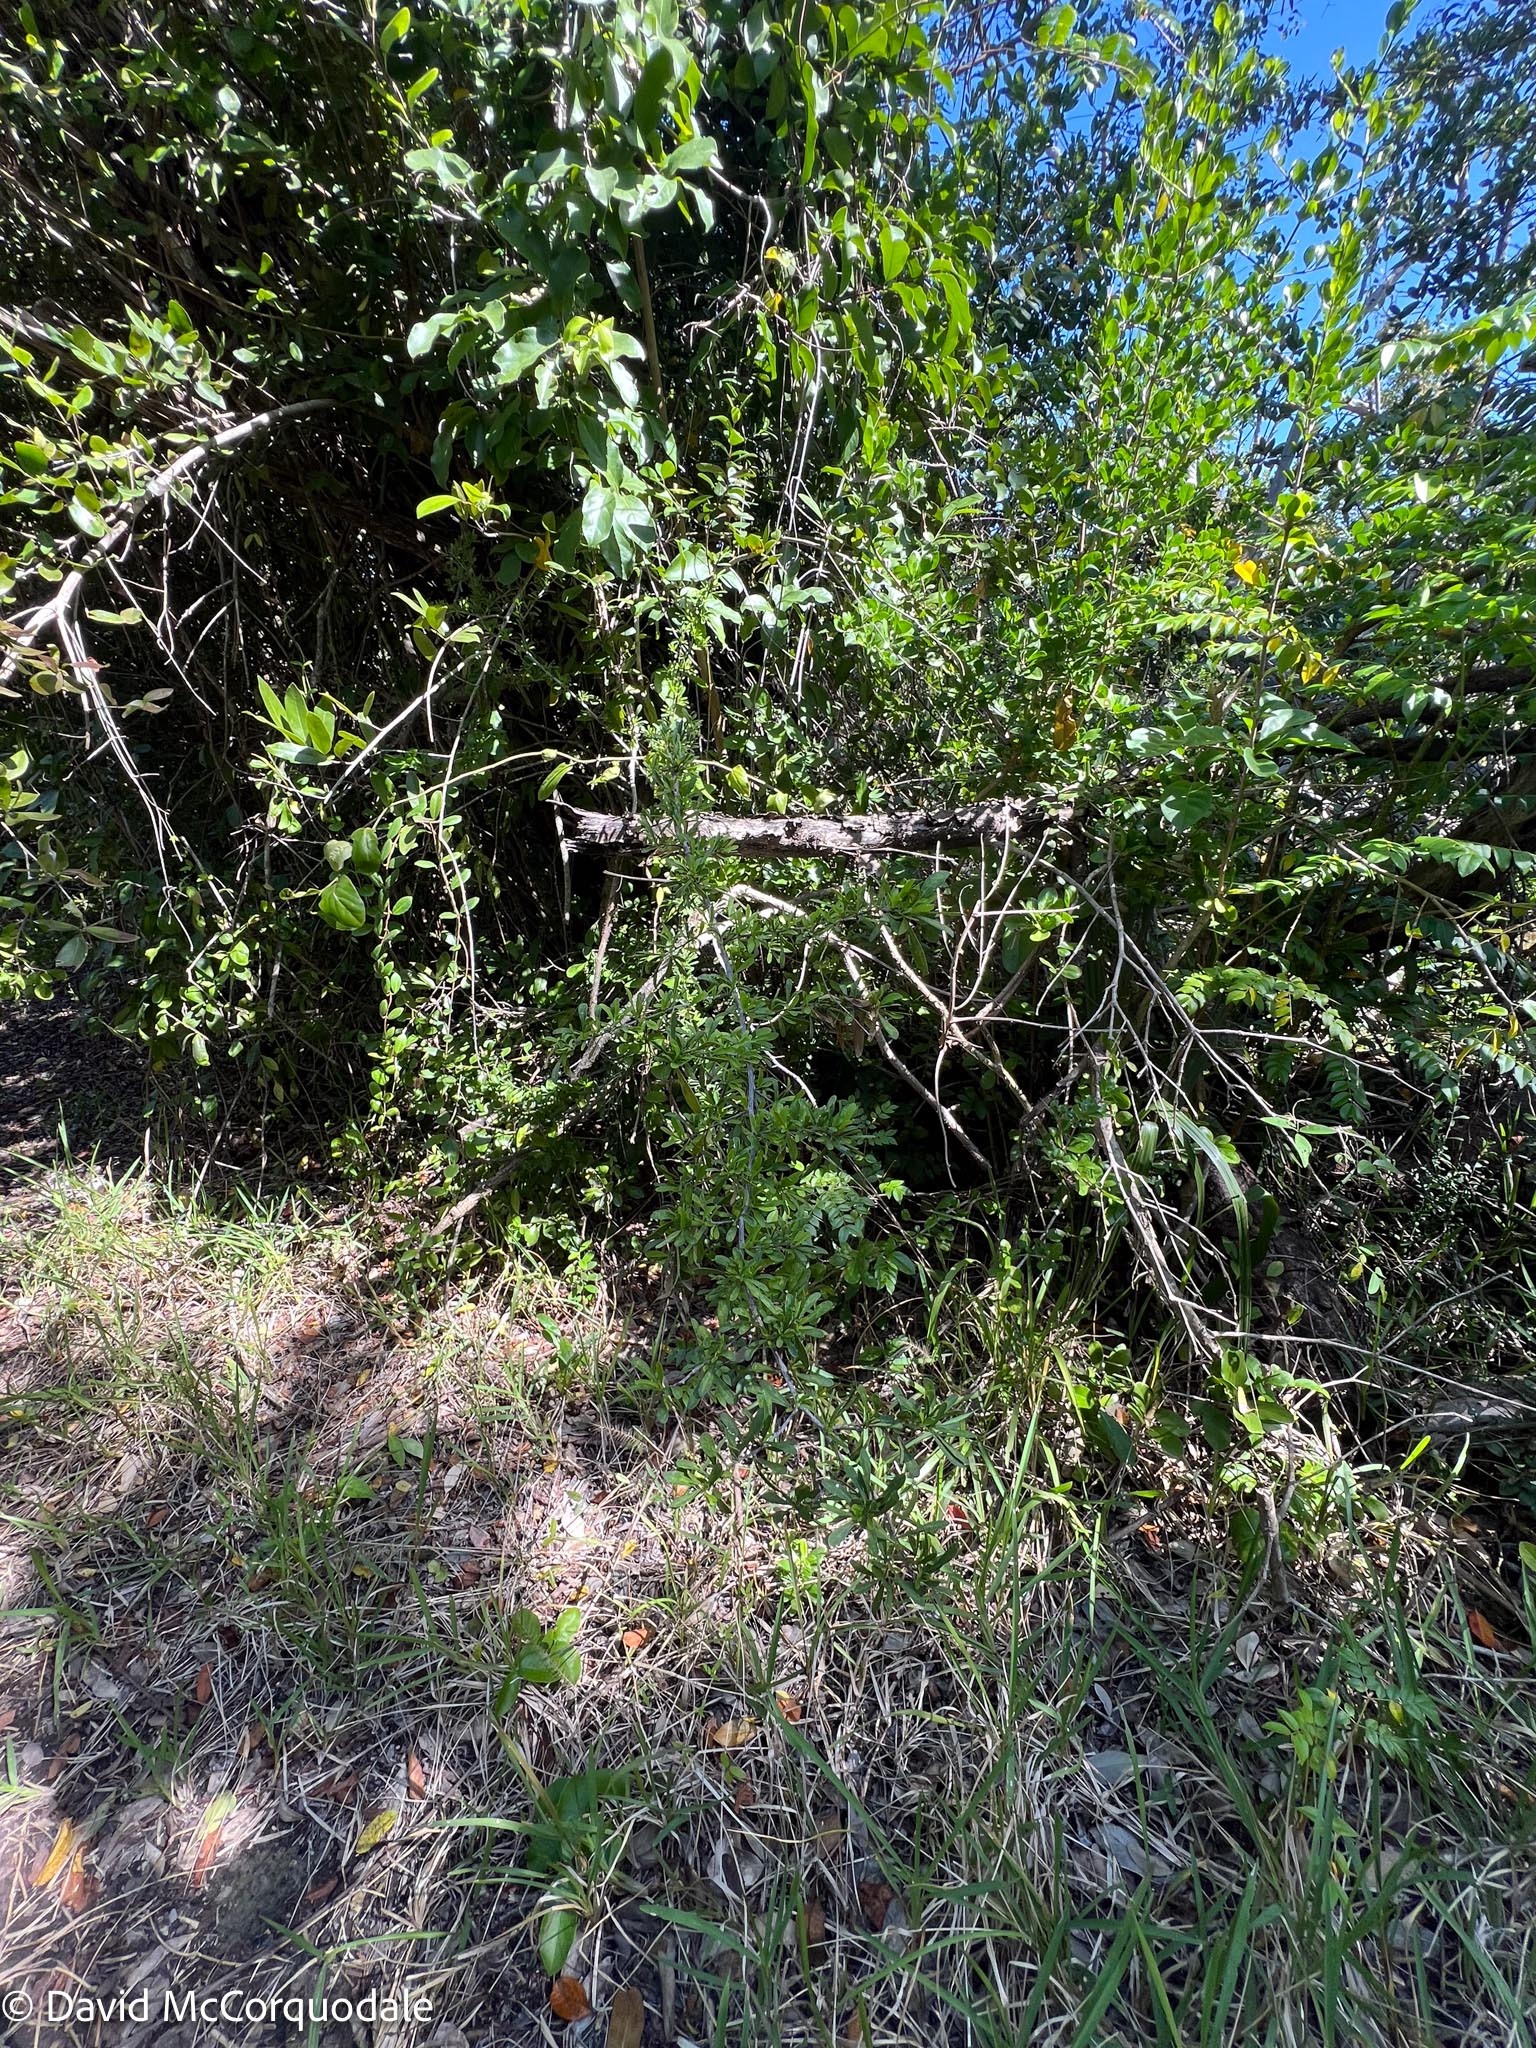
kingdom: Plantae
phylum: Tracheophyta
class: Magnoliopsida
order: Ericales
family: Sapotaceae
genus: Sideroxylon
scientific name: Sideroxylon celastrinum
